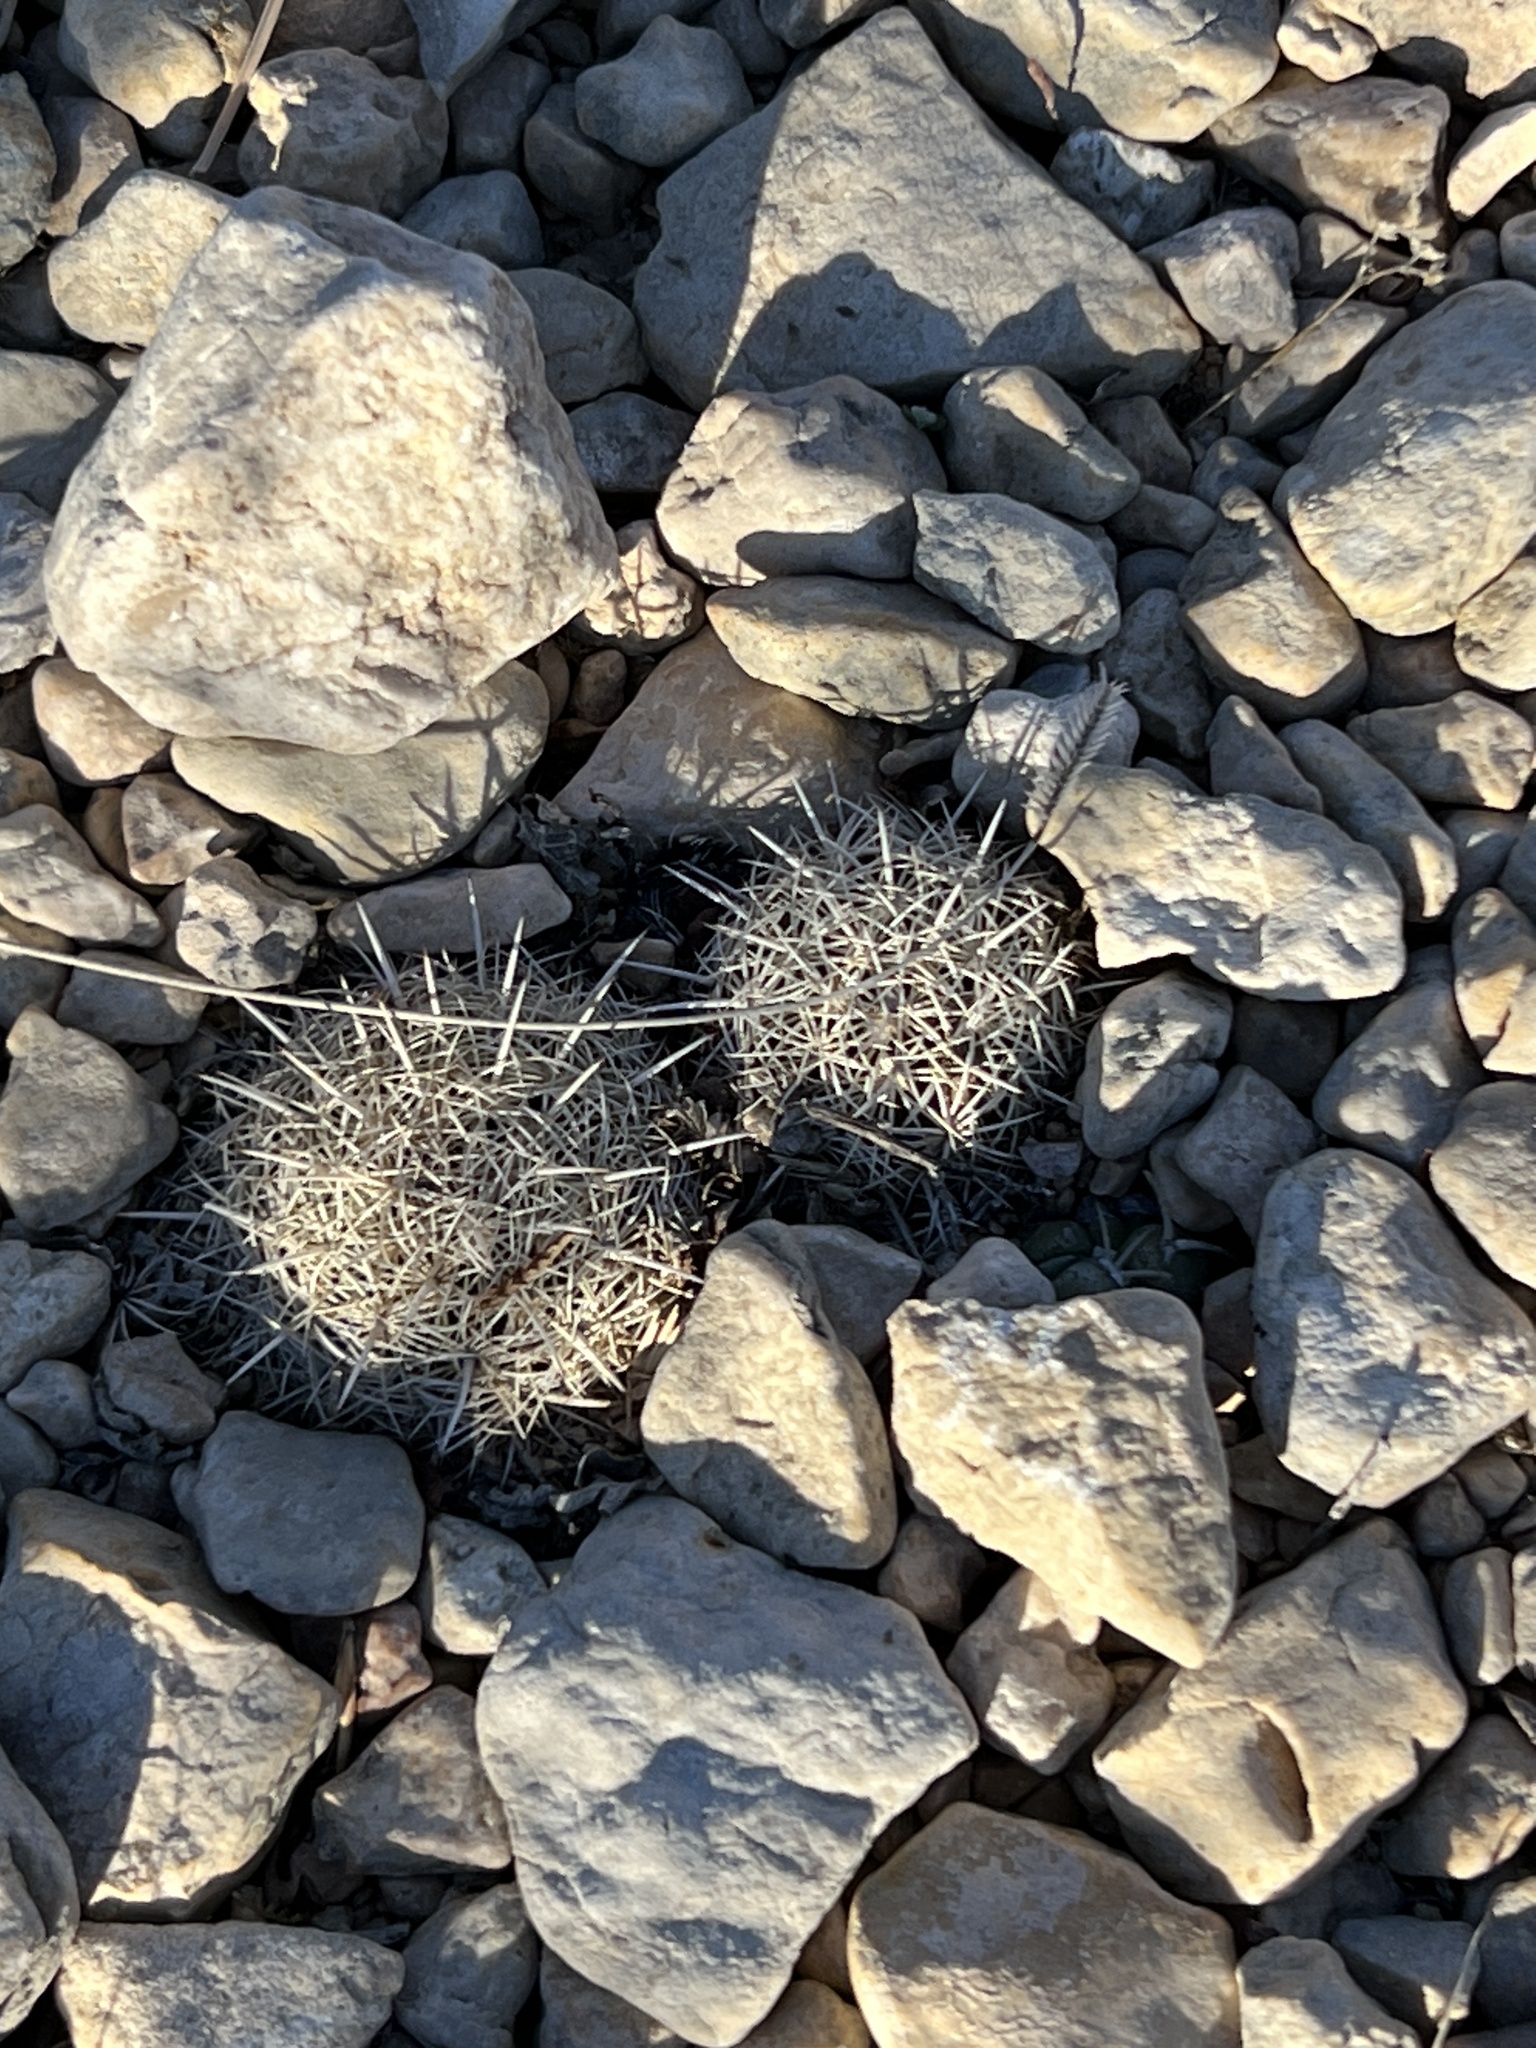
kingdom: Plantae
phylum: Tracheophyta
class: Magnoliopsida
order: Caryophyllales
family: Cactaceae
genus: Coryphantha
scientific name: Coryphantha echinus
